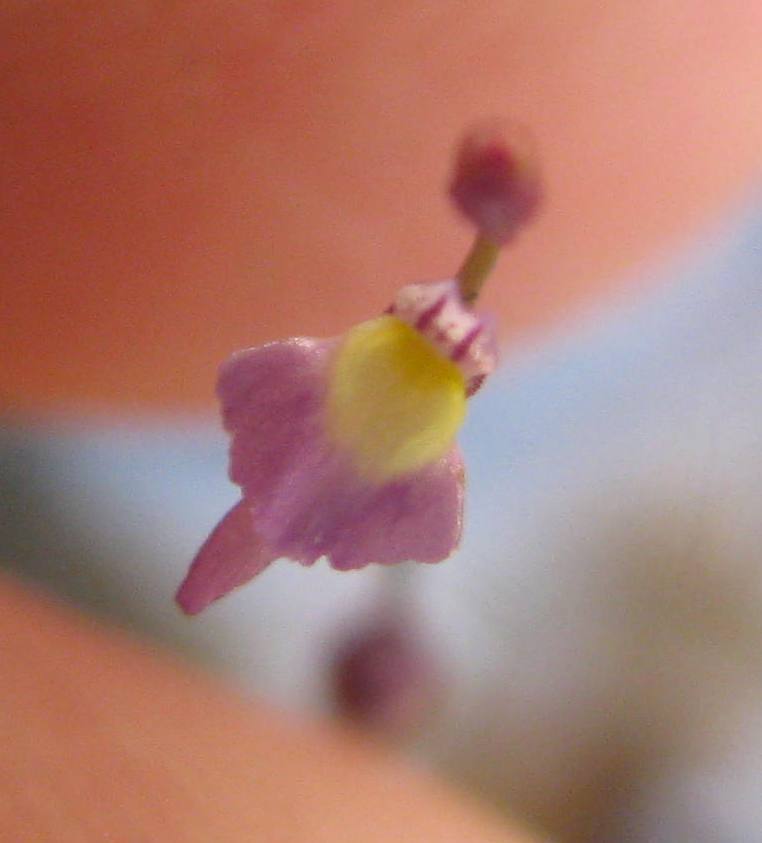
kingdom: Plantae
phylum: Tracheophyta
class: Magnoliopsida
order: Lamiales
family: Lentibulariaceae
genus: Utricularia
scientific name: Utricularia bisquamata
